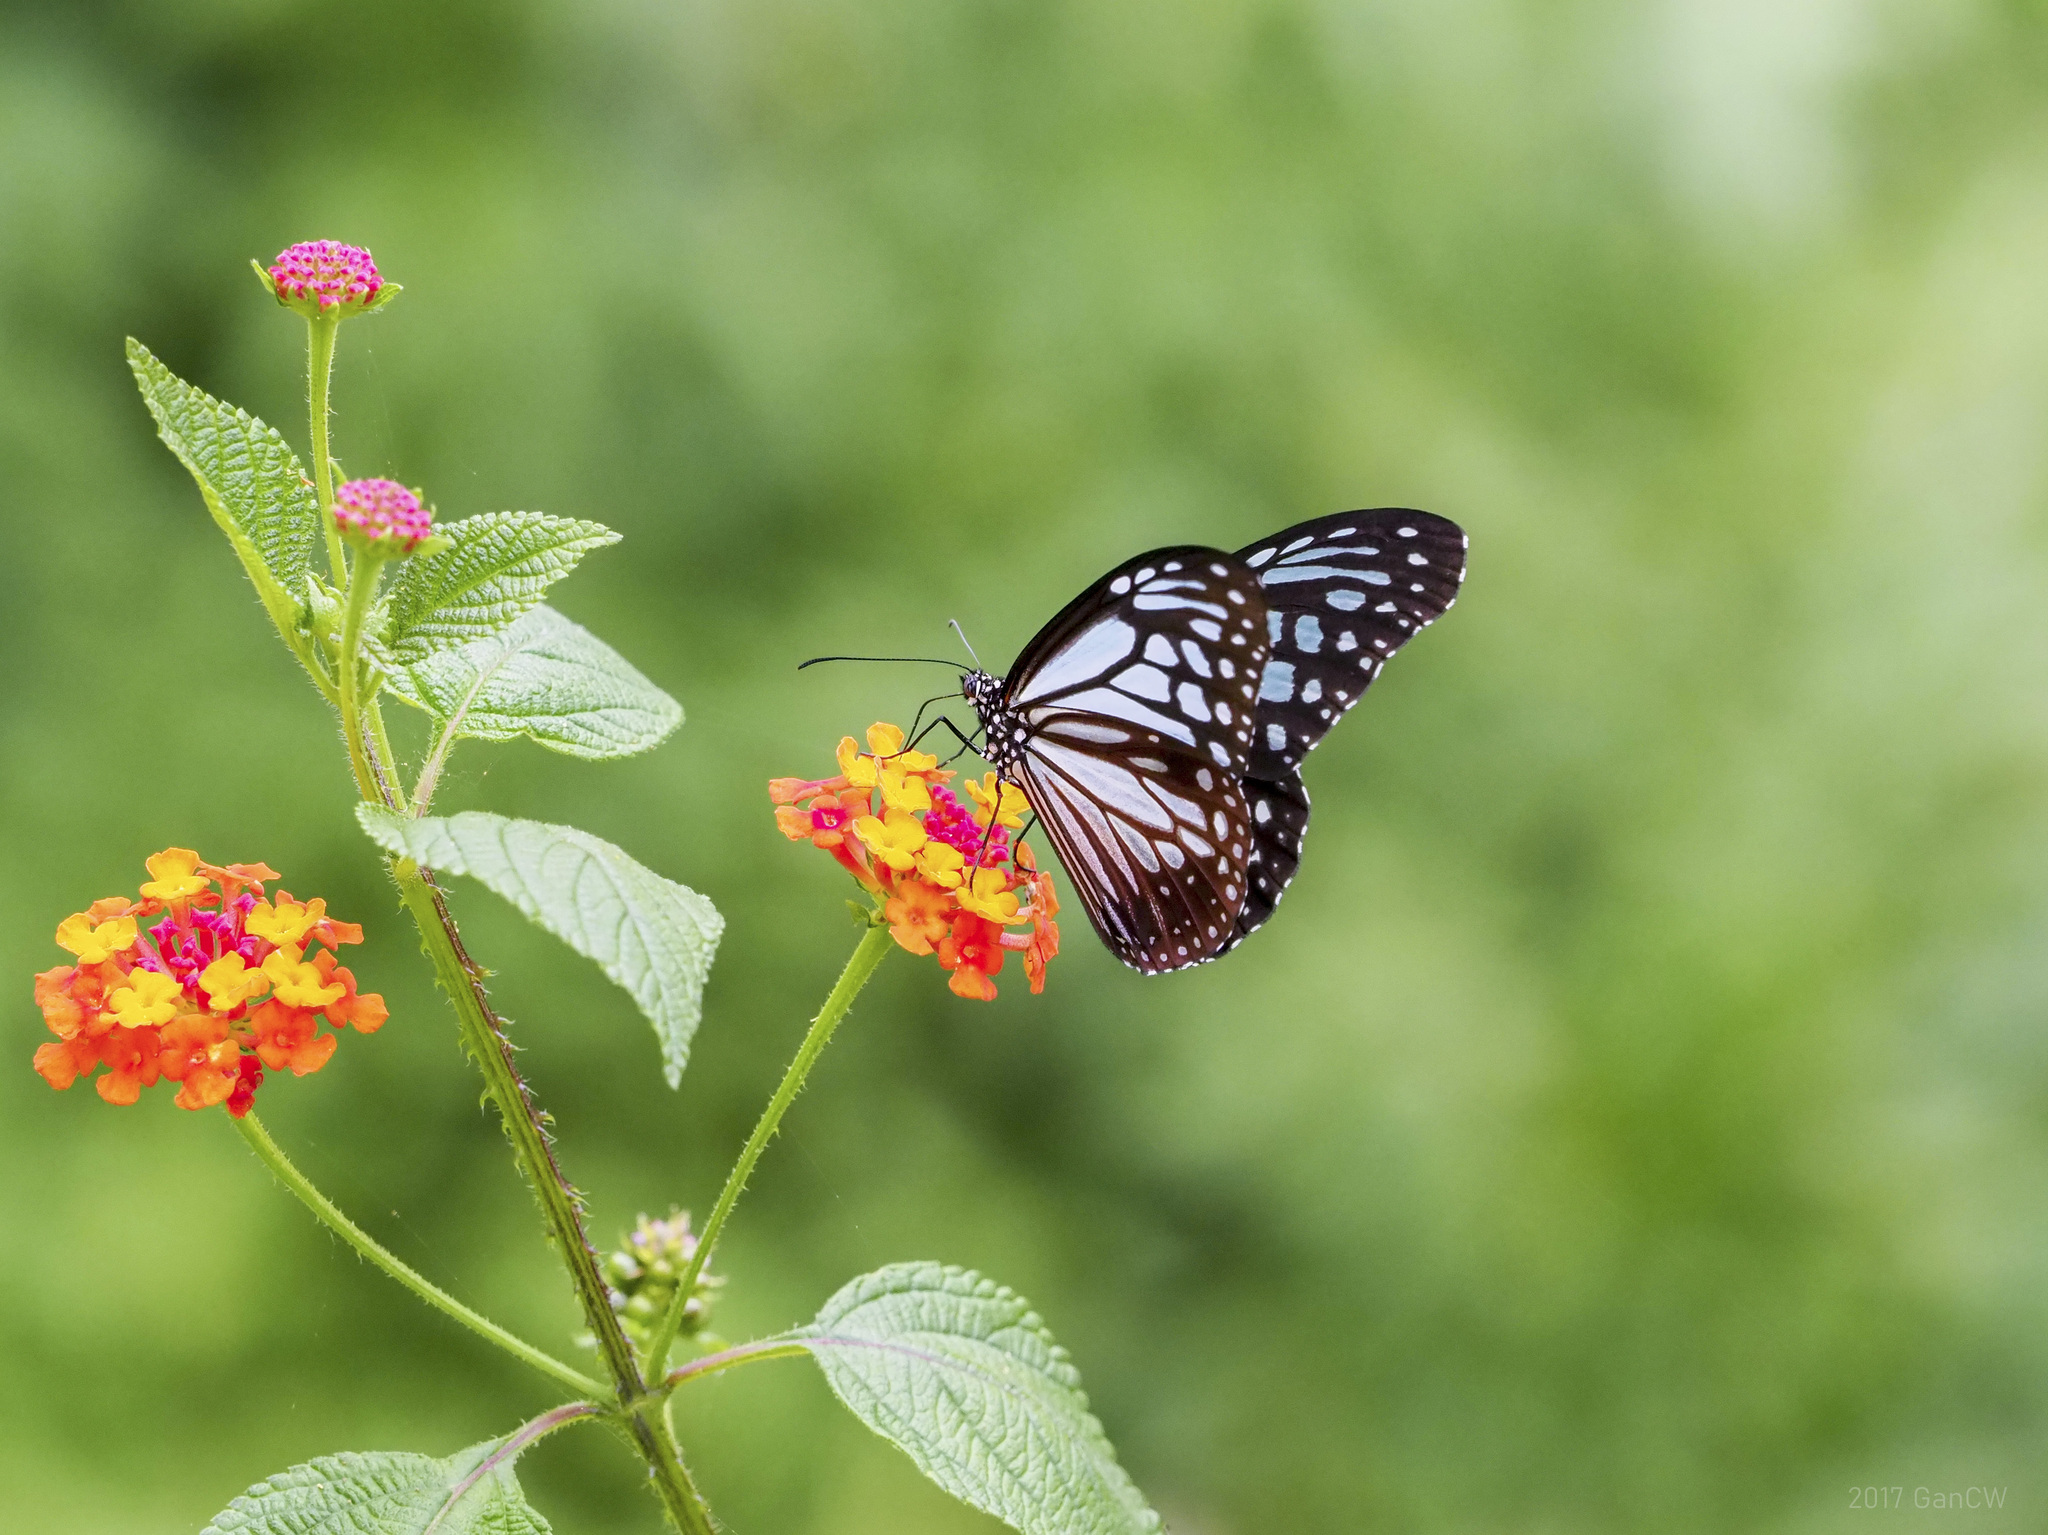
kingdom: Animalia
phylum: Arthropoda
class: Insecta
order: Lepidoptera
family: Nymphalidae
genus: Parantica
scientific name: Parantica melaneus
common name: Chocolate tiger
